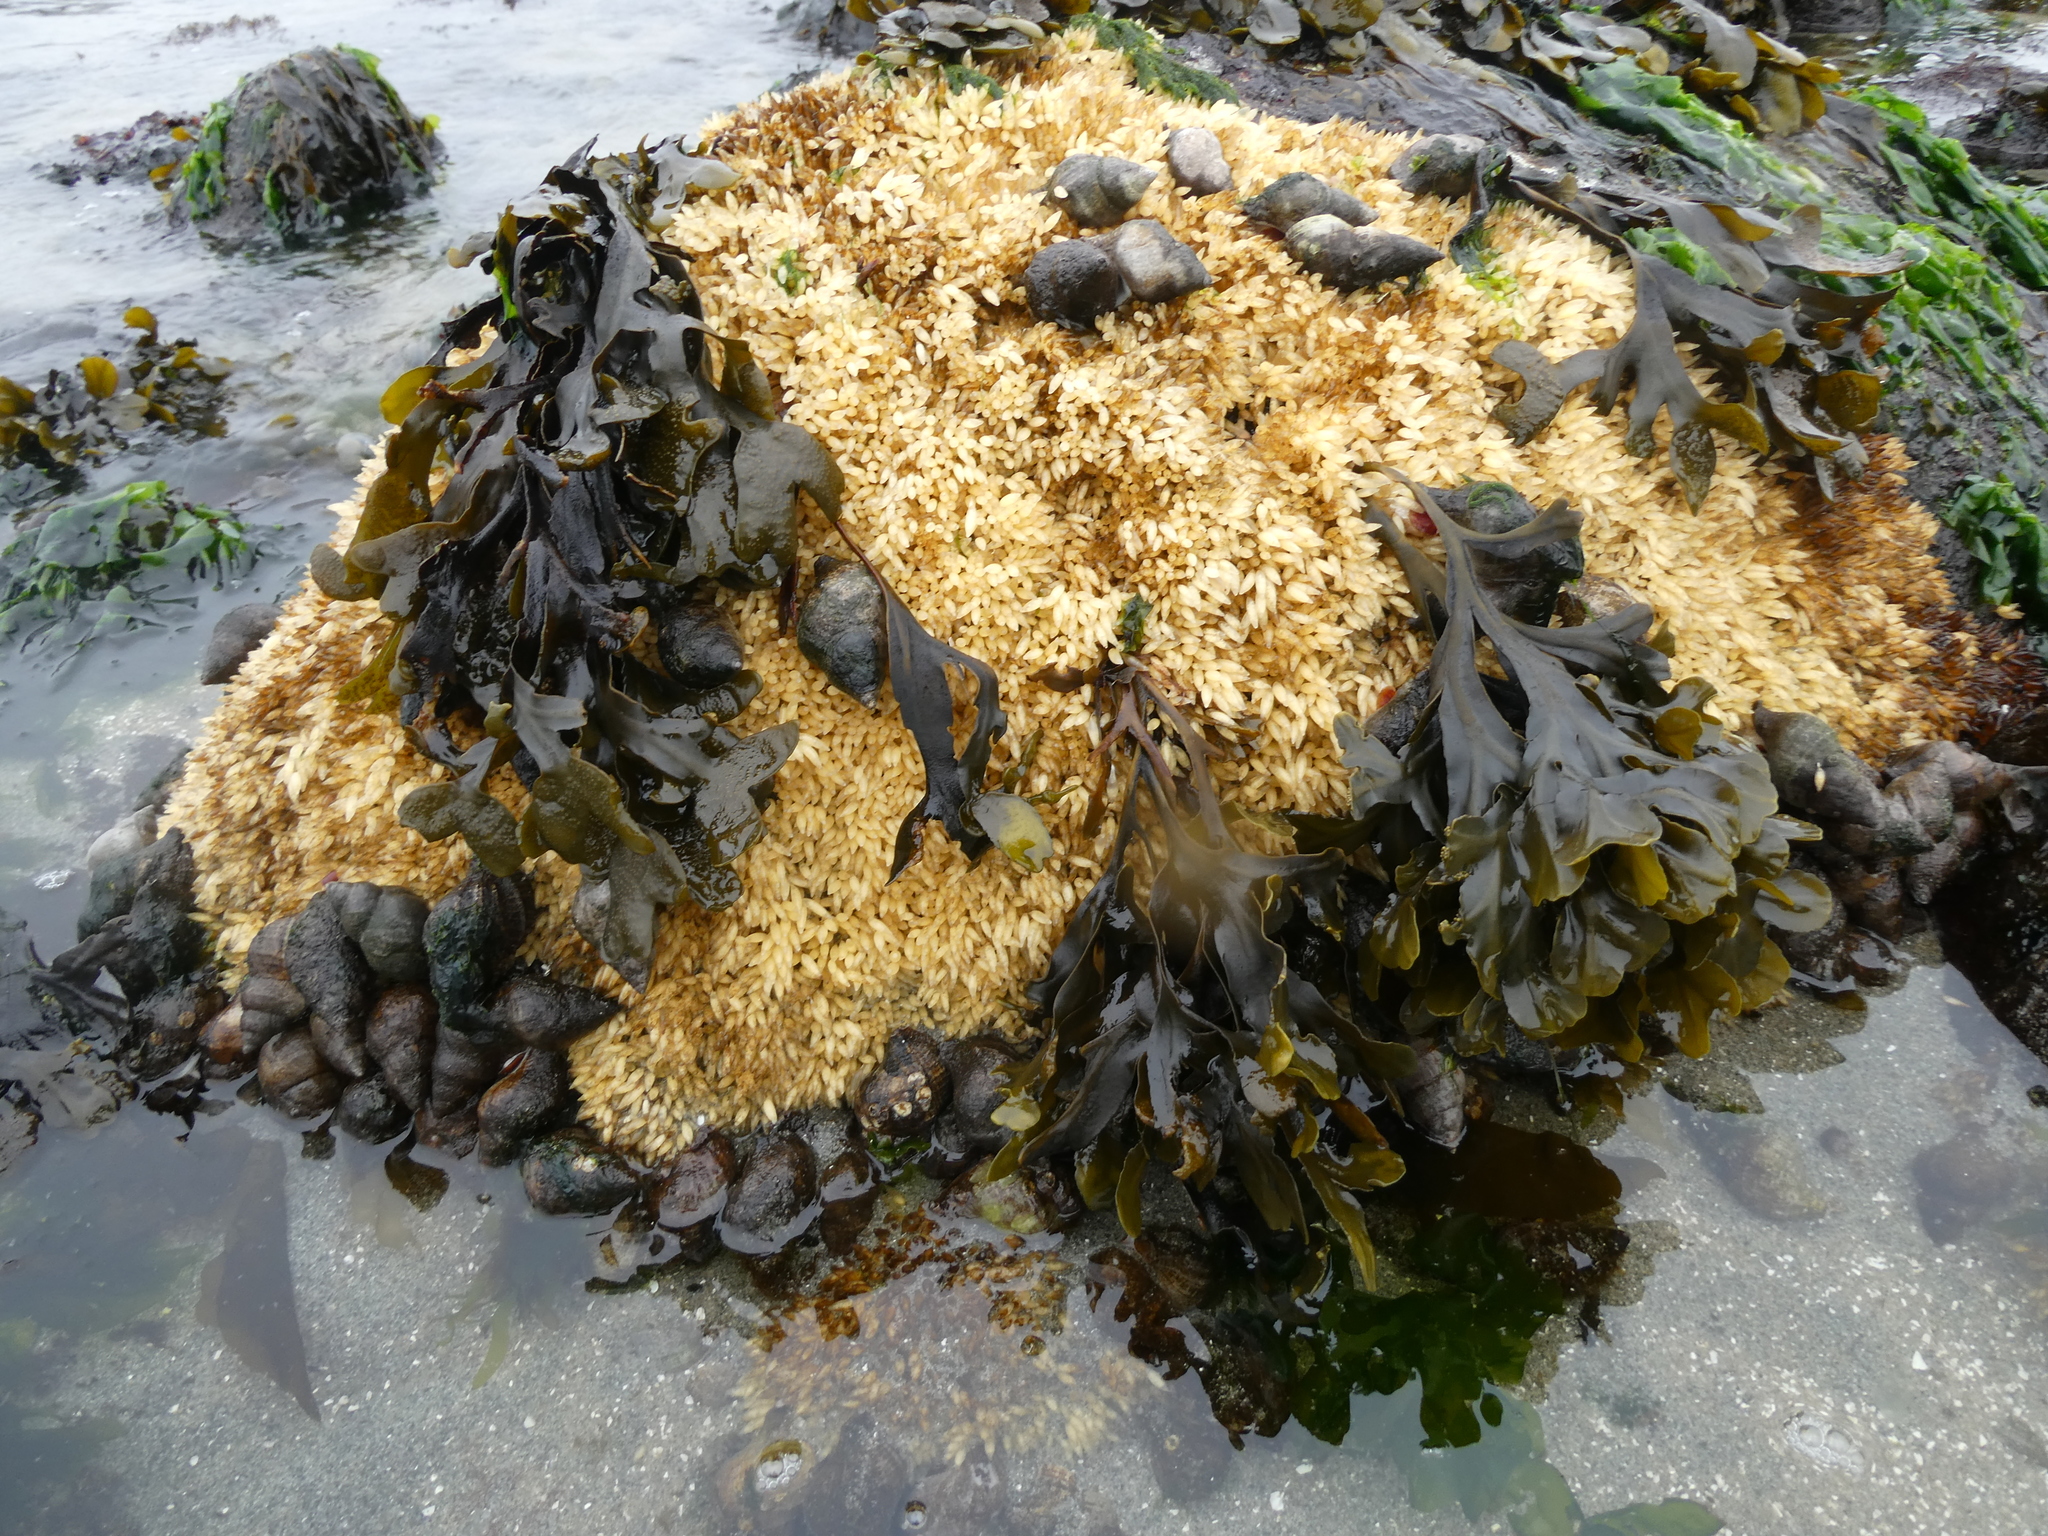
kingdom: Animalia
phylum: Mollusca
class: Gastropoda
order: Neogastropoda
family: Muricidae
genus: Nucella
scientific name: Nucella lamellosa
